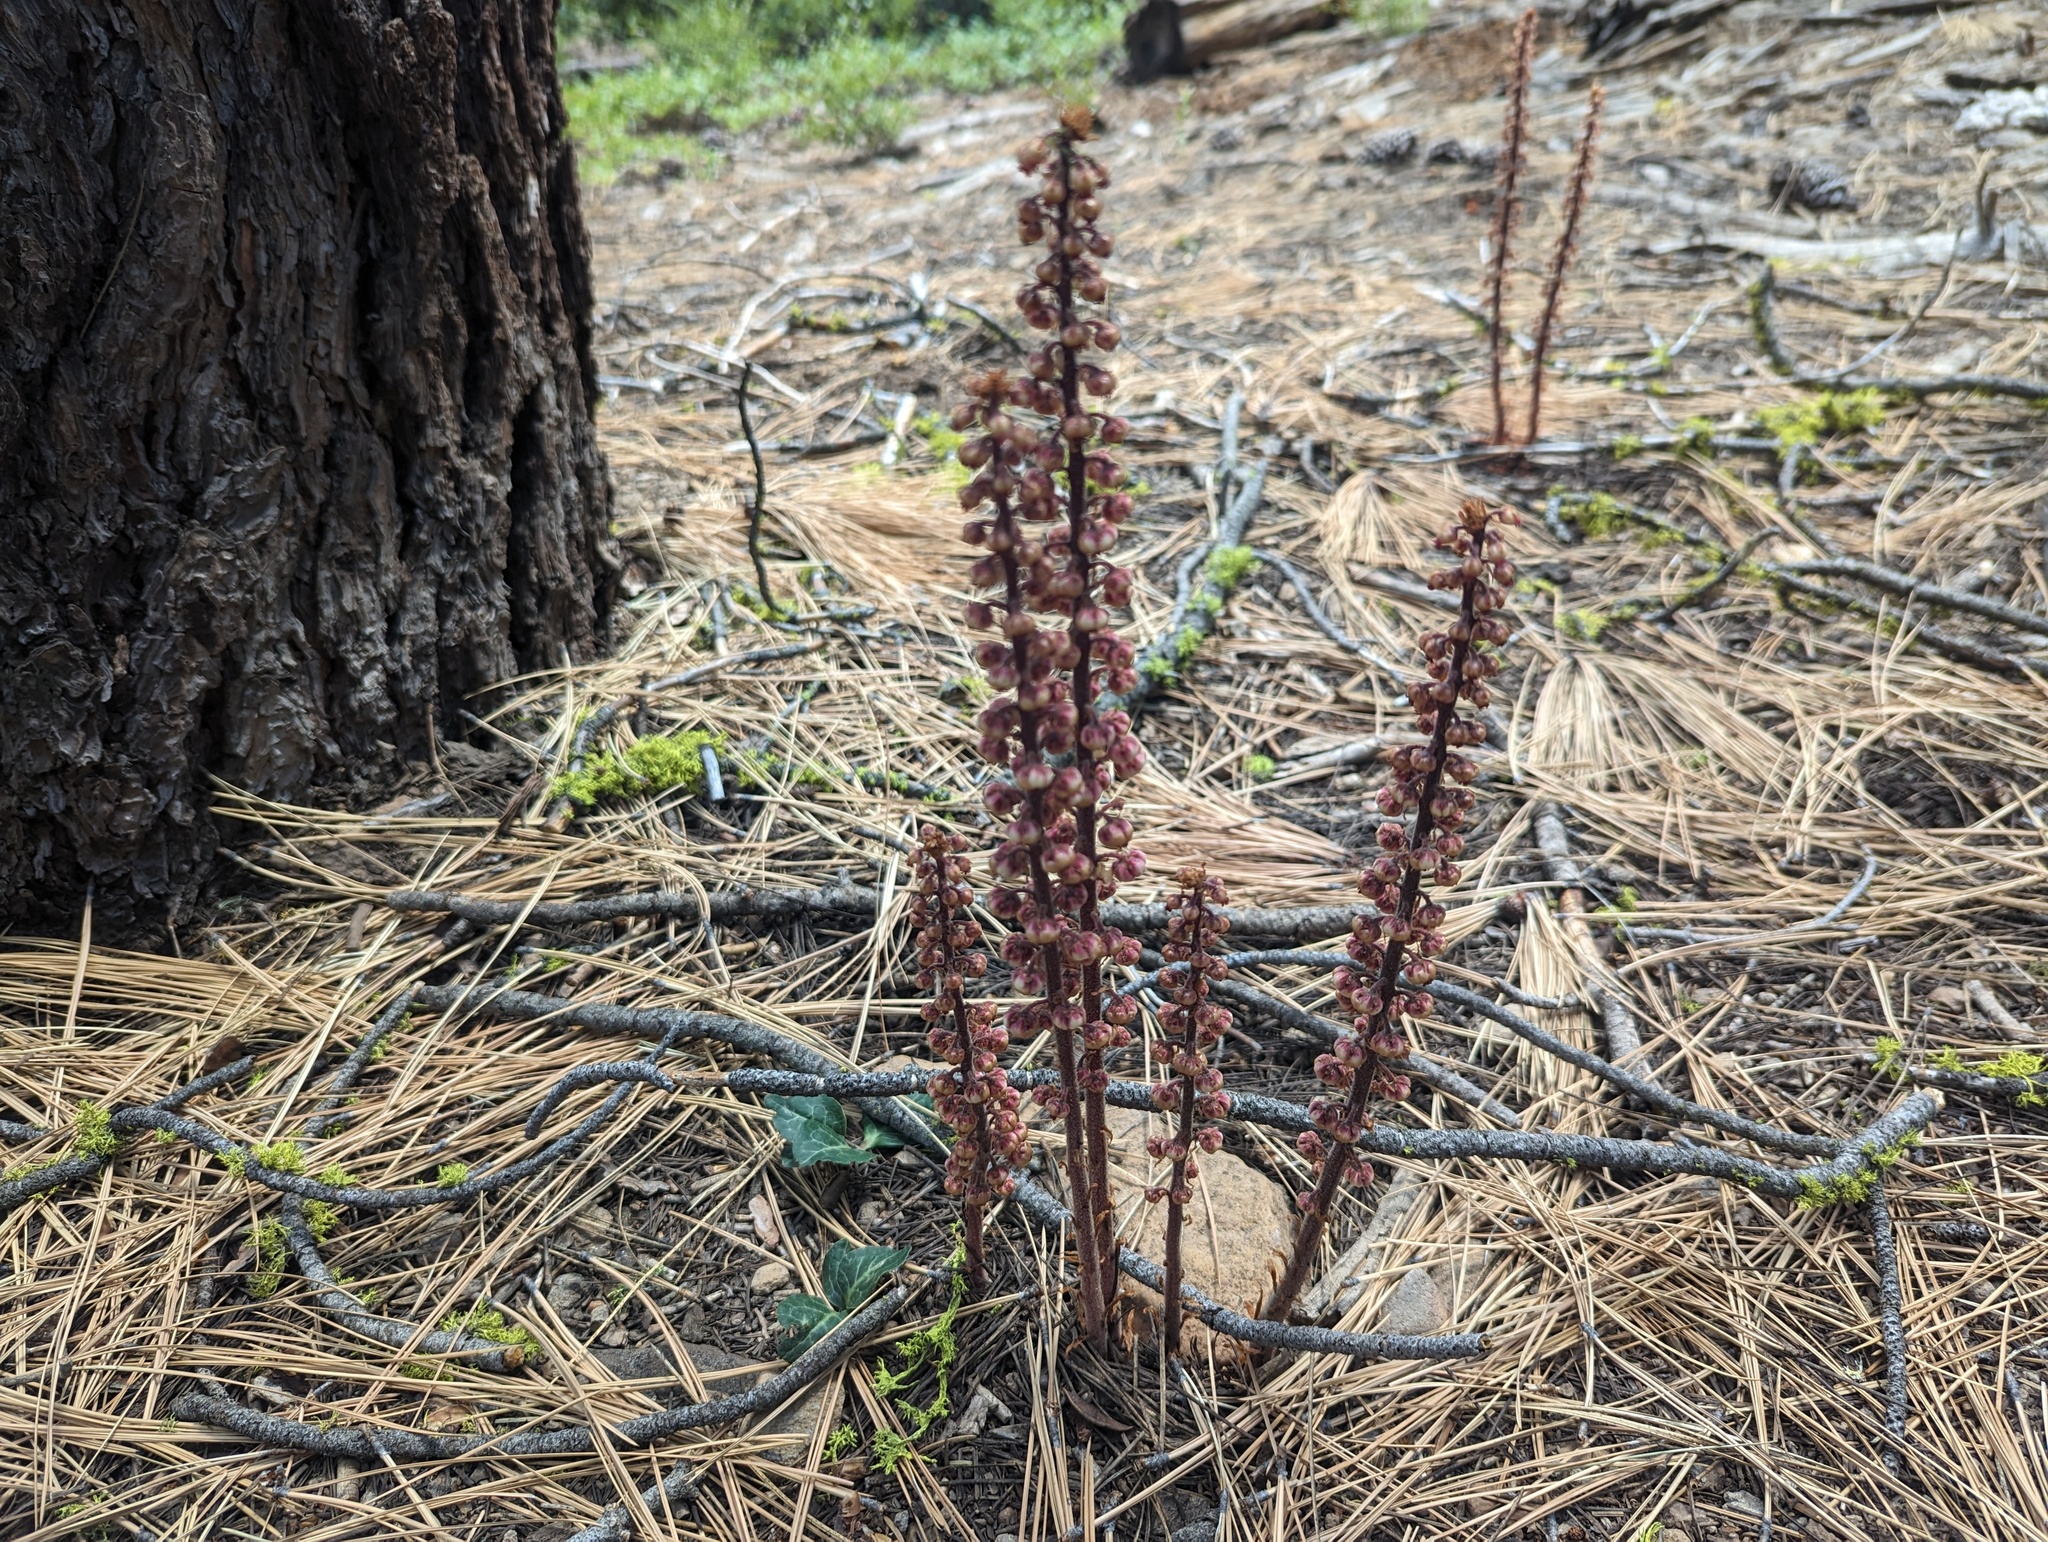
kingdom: Plantae
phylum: Tracheophyta
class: Magnoliopsida
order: Ericales
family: Ericaceae
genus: Pterospora
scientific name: Pterospora andromedea
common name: Giant bird's-nest
